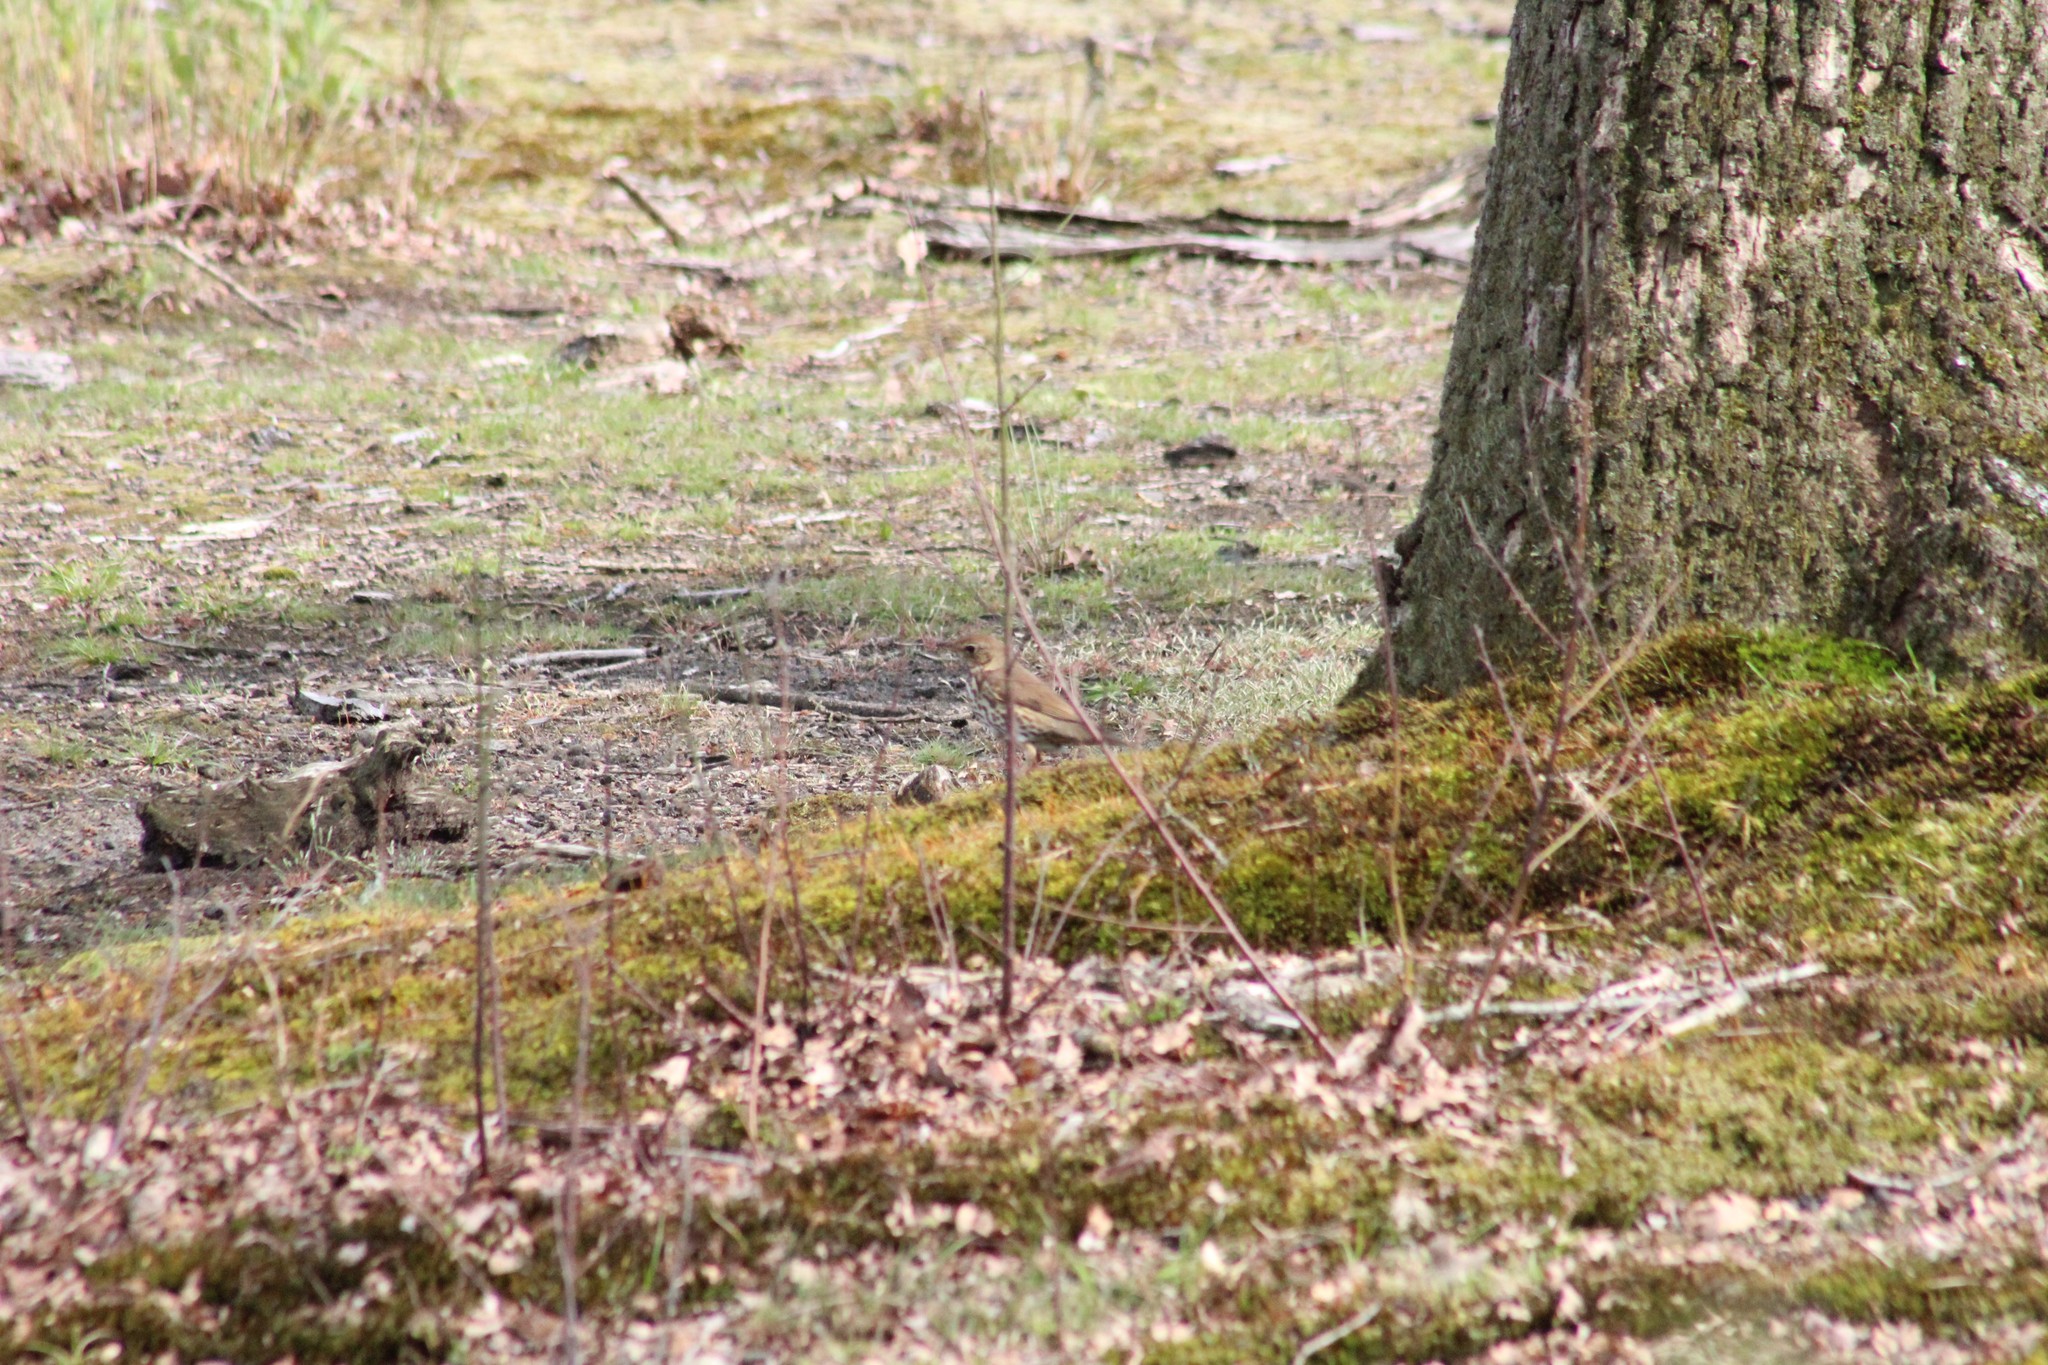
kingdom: Animalia
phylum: Chordata
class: Aves
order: Passeriformes
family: Turdidae
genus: Turdus
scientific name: Turdus philomelos
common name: Song thrush
